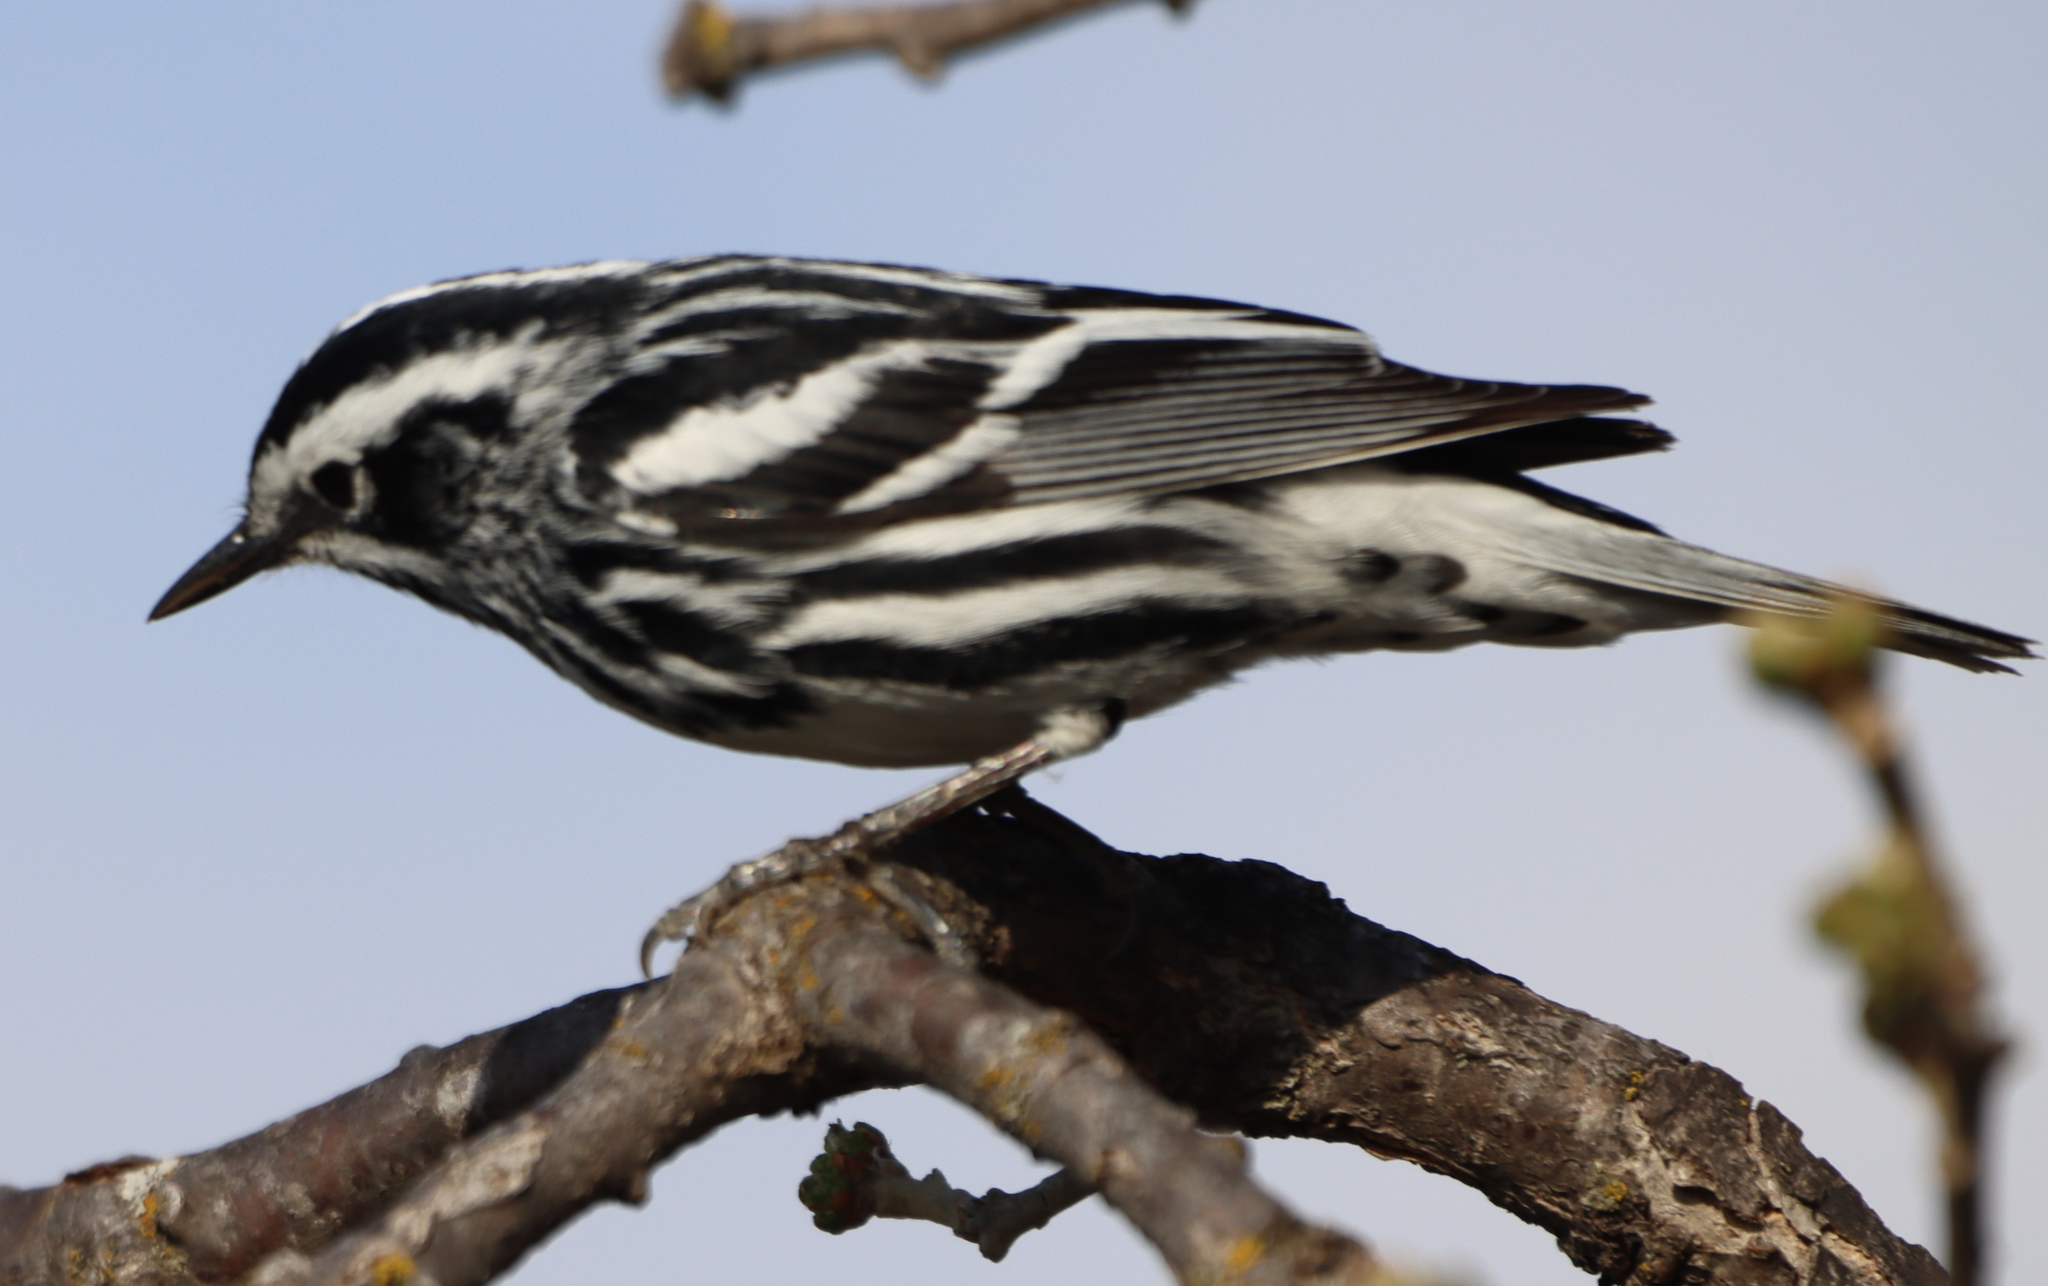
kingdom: Animalia
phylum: Chordata
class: Aves
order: Passeriformes
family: Parulidae
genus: Mniotilta
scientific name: Mniotilta varia
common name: Black-and-white warbler
